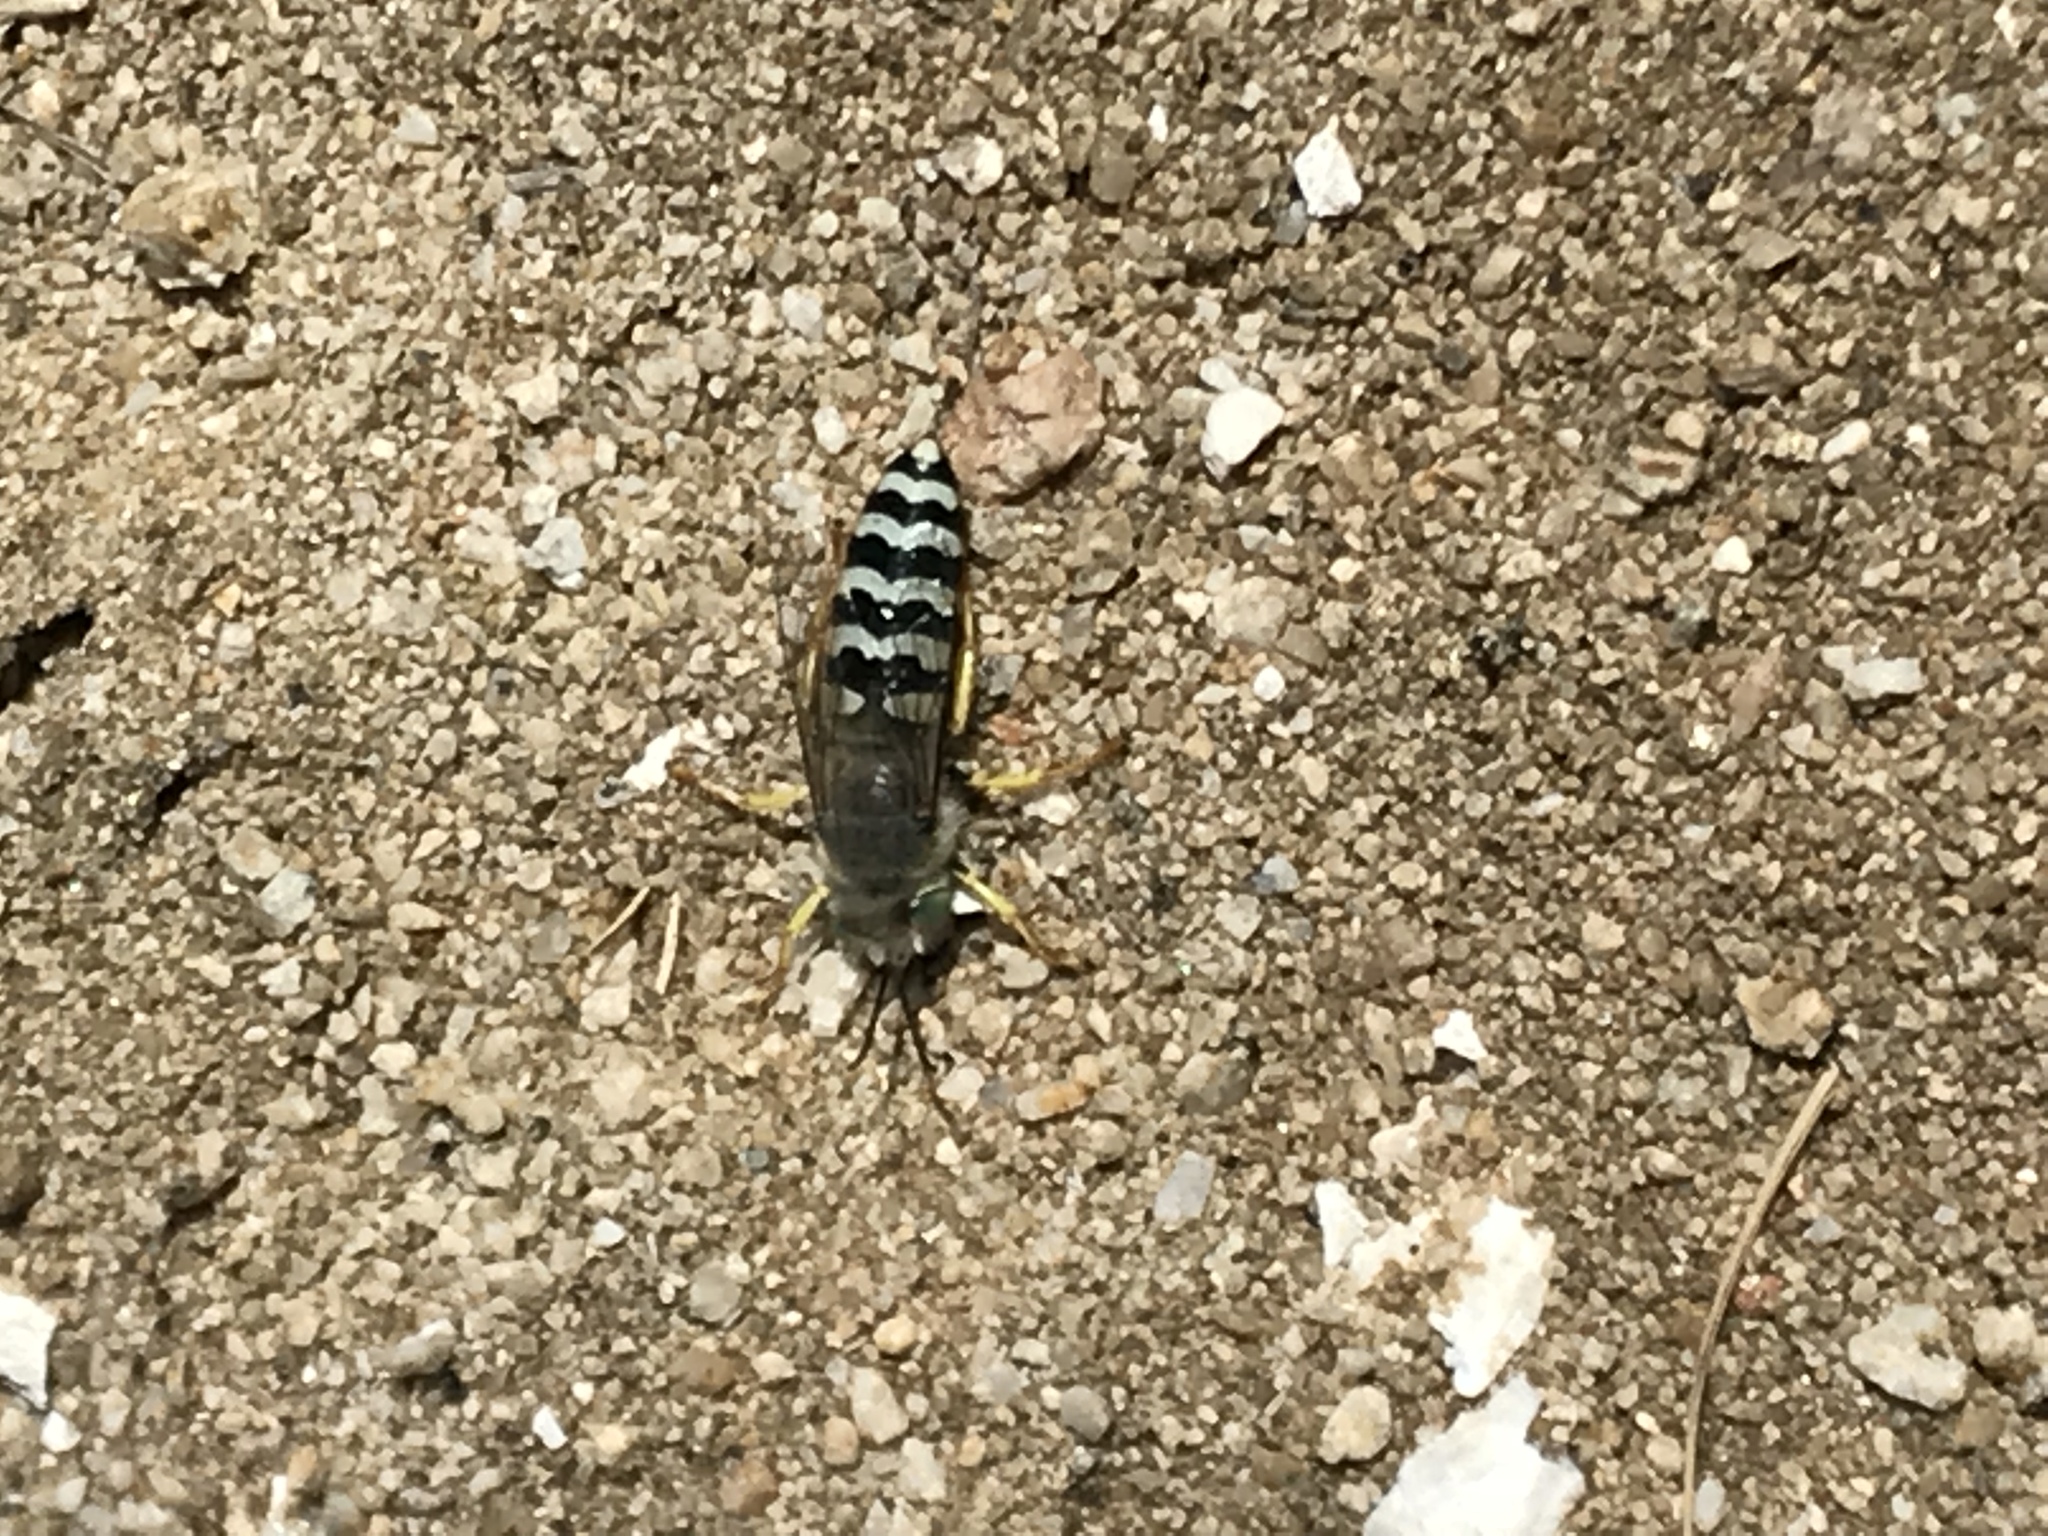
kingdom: Animalia
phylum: Arthropoda
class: Insecta
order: Hymenoptera
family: Crabronidae
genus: Bembix
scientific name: Bembix americana
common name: American sand wasp
